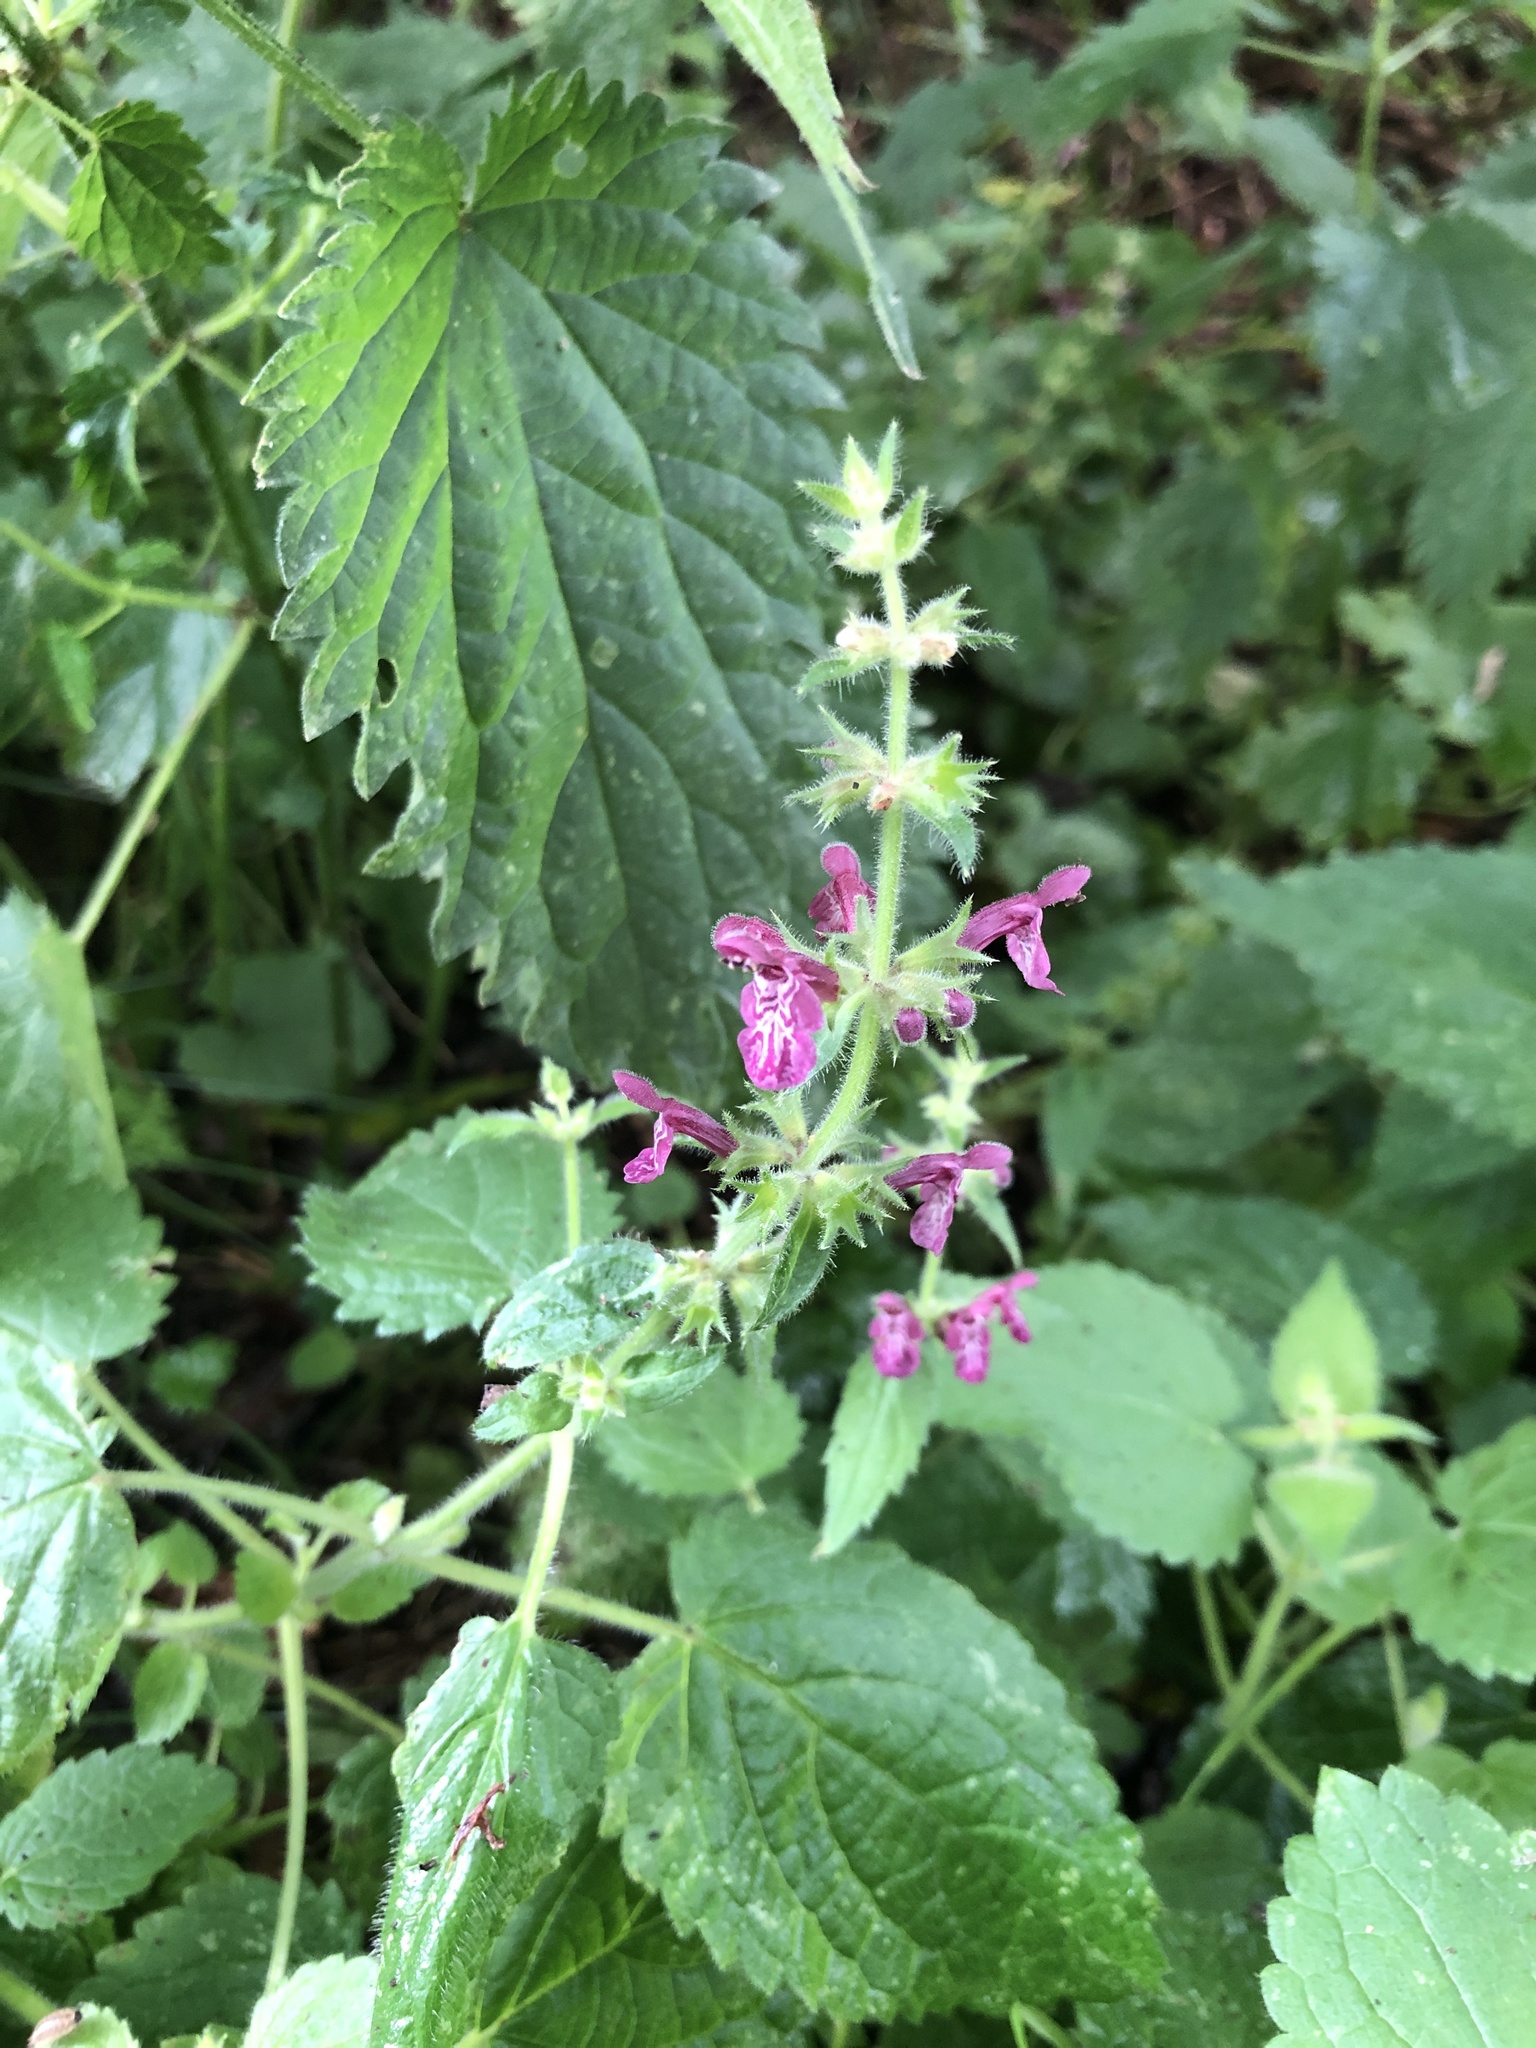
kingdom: Plantae
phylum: Tracheophyta
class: Magnoliopsida
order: Lamiales
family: Lamiaceae
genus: Stachys
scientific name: Stachys sylvatica
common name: Hedge woundwort
